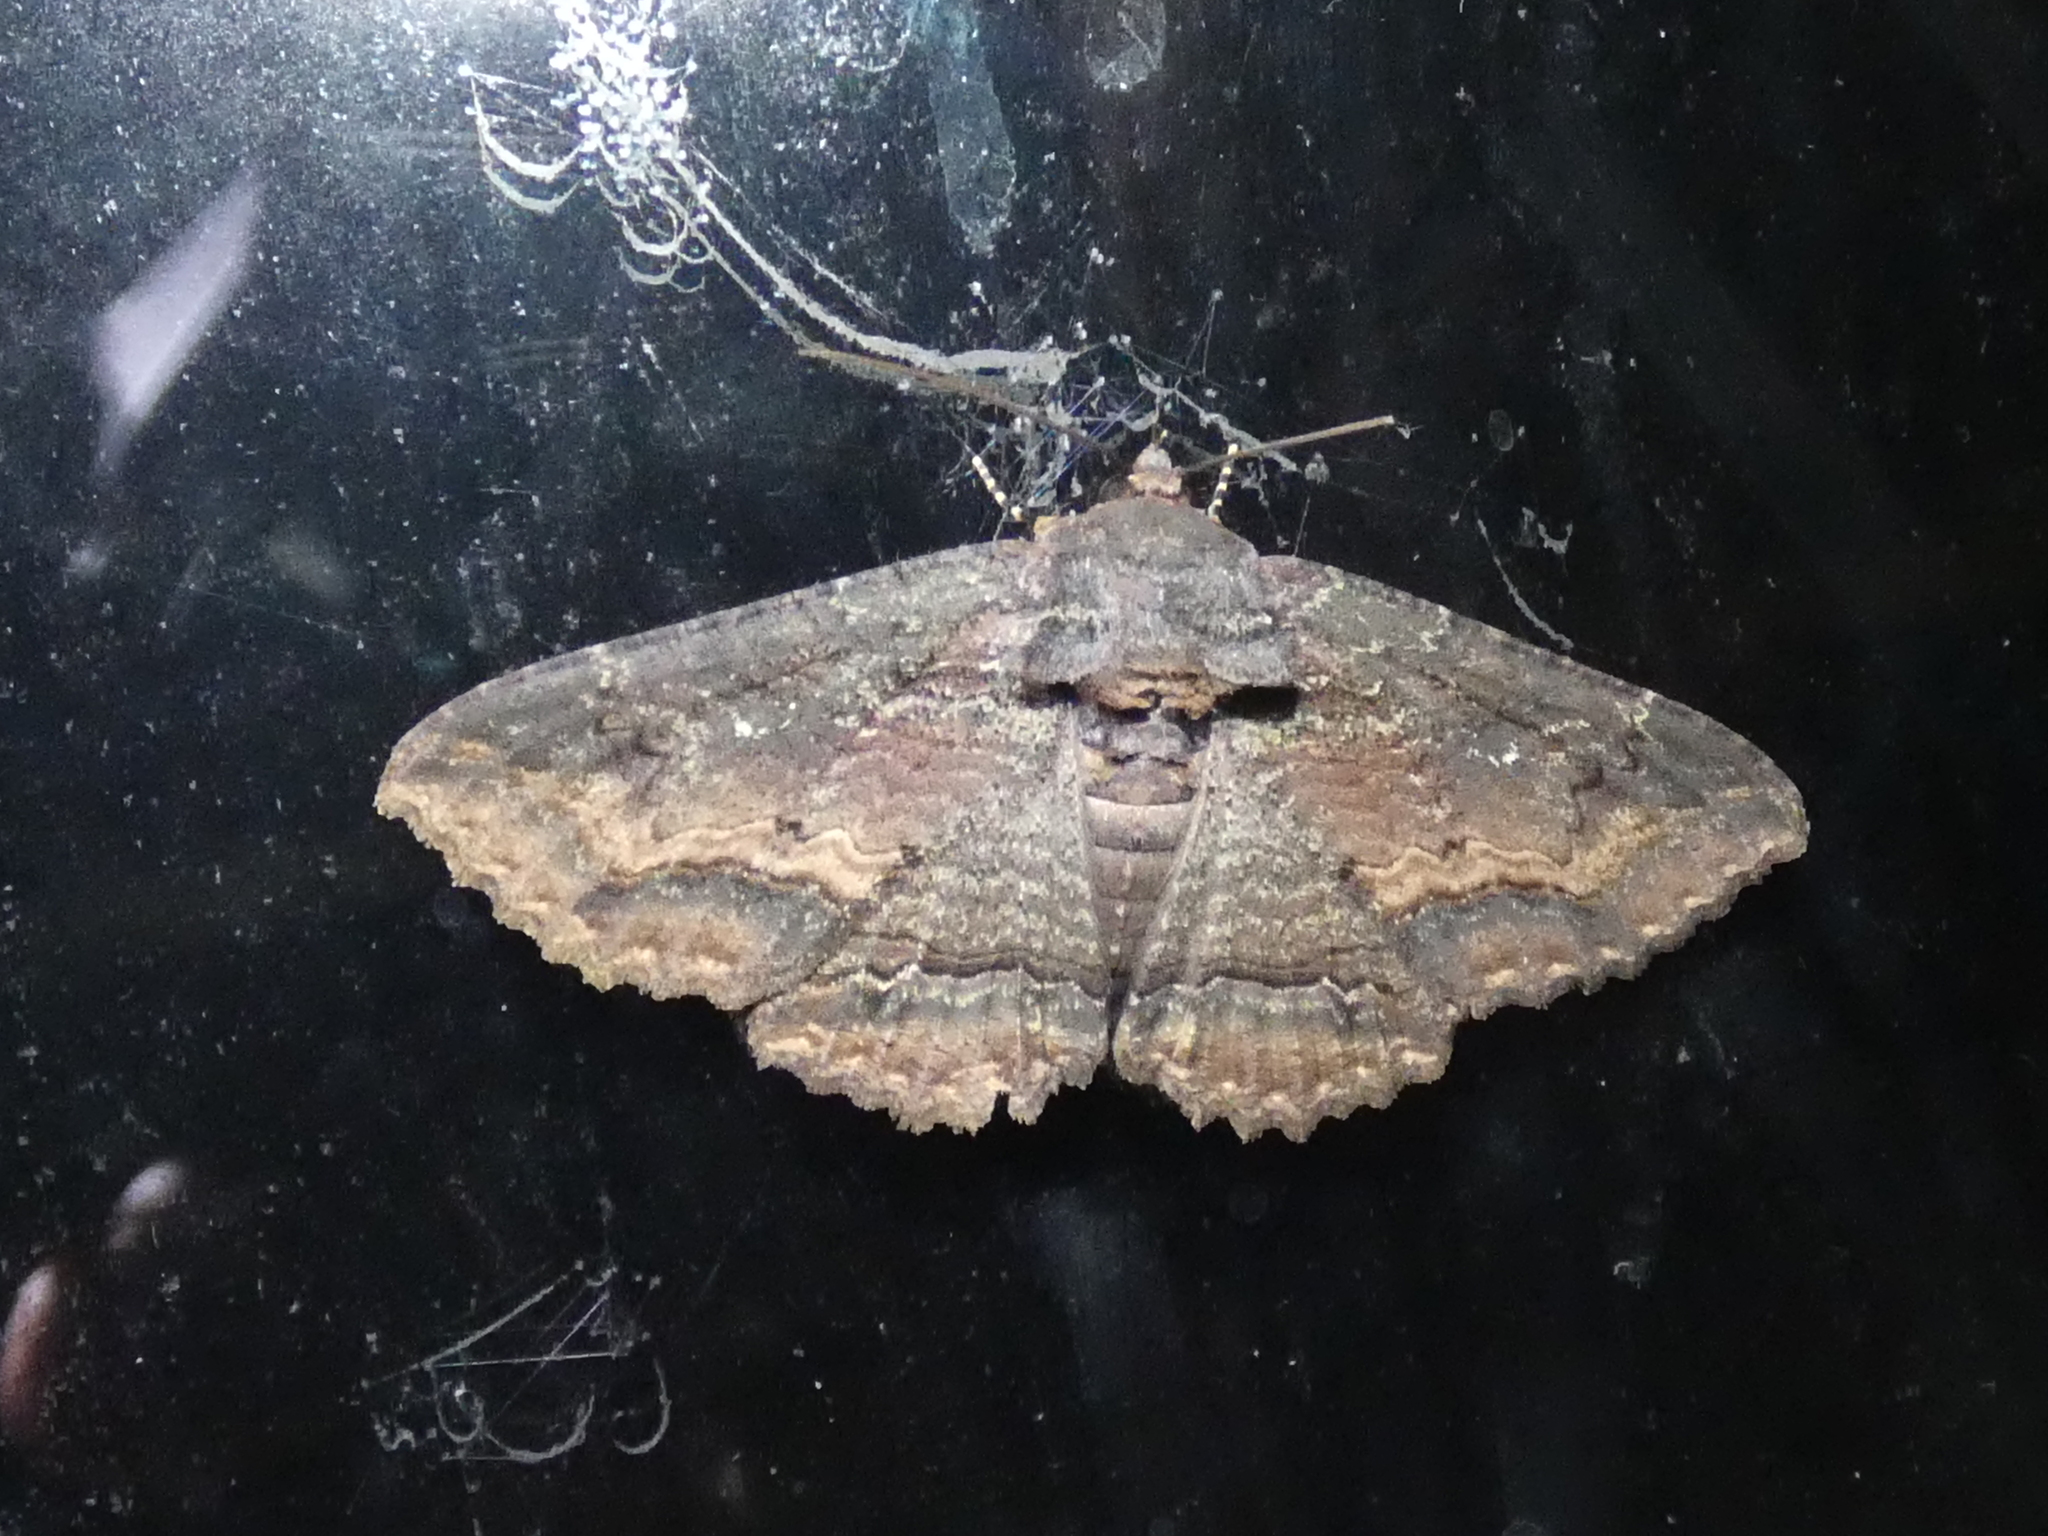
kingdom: Animalia
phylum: Arthropoda
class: Insecta
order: Lepidoptera
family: Erebidae
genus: Zale
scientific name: Zale lunata
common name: Lunate zale moth
